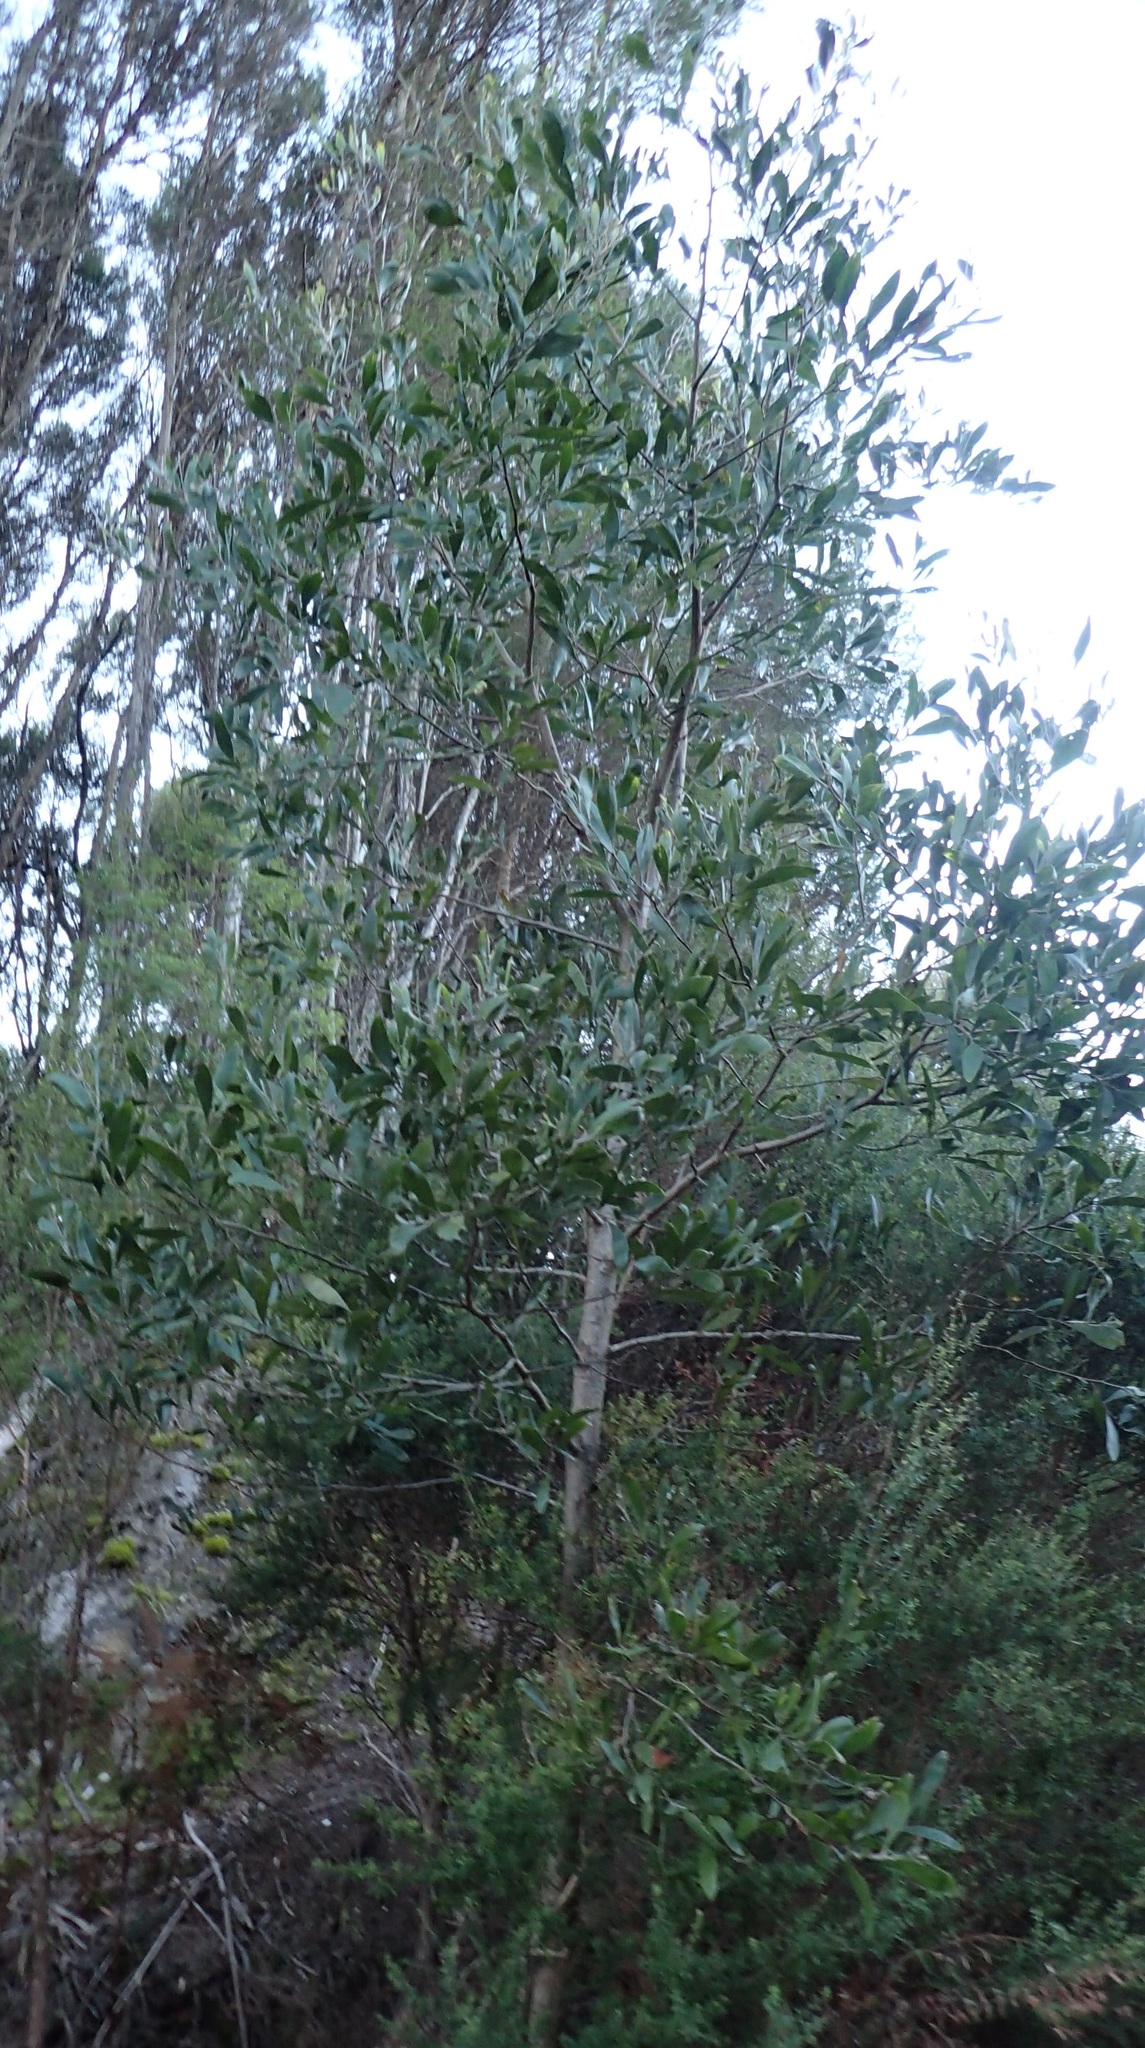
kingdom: Plantae
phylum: Tracheophyta
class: Magnoliopsida
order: Fabales
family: Fabaceae
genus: Acacia
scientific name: Acacia melanoxylon
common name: Blackwood
